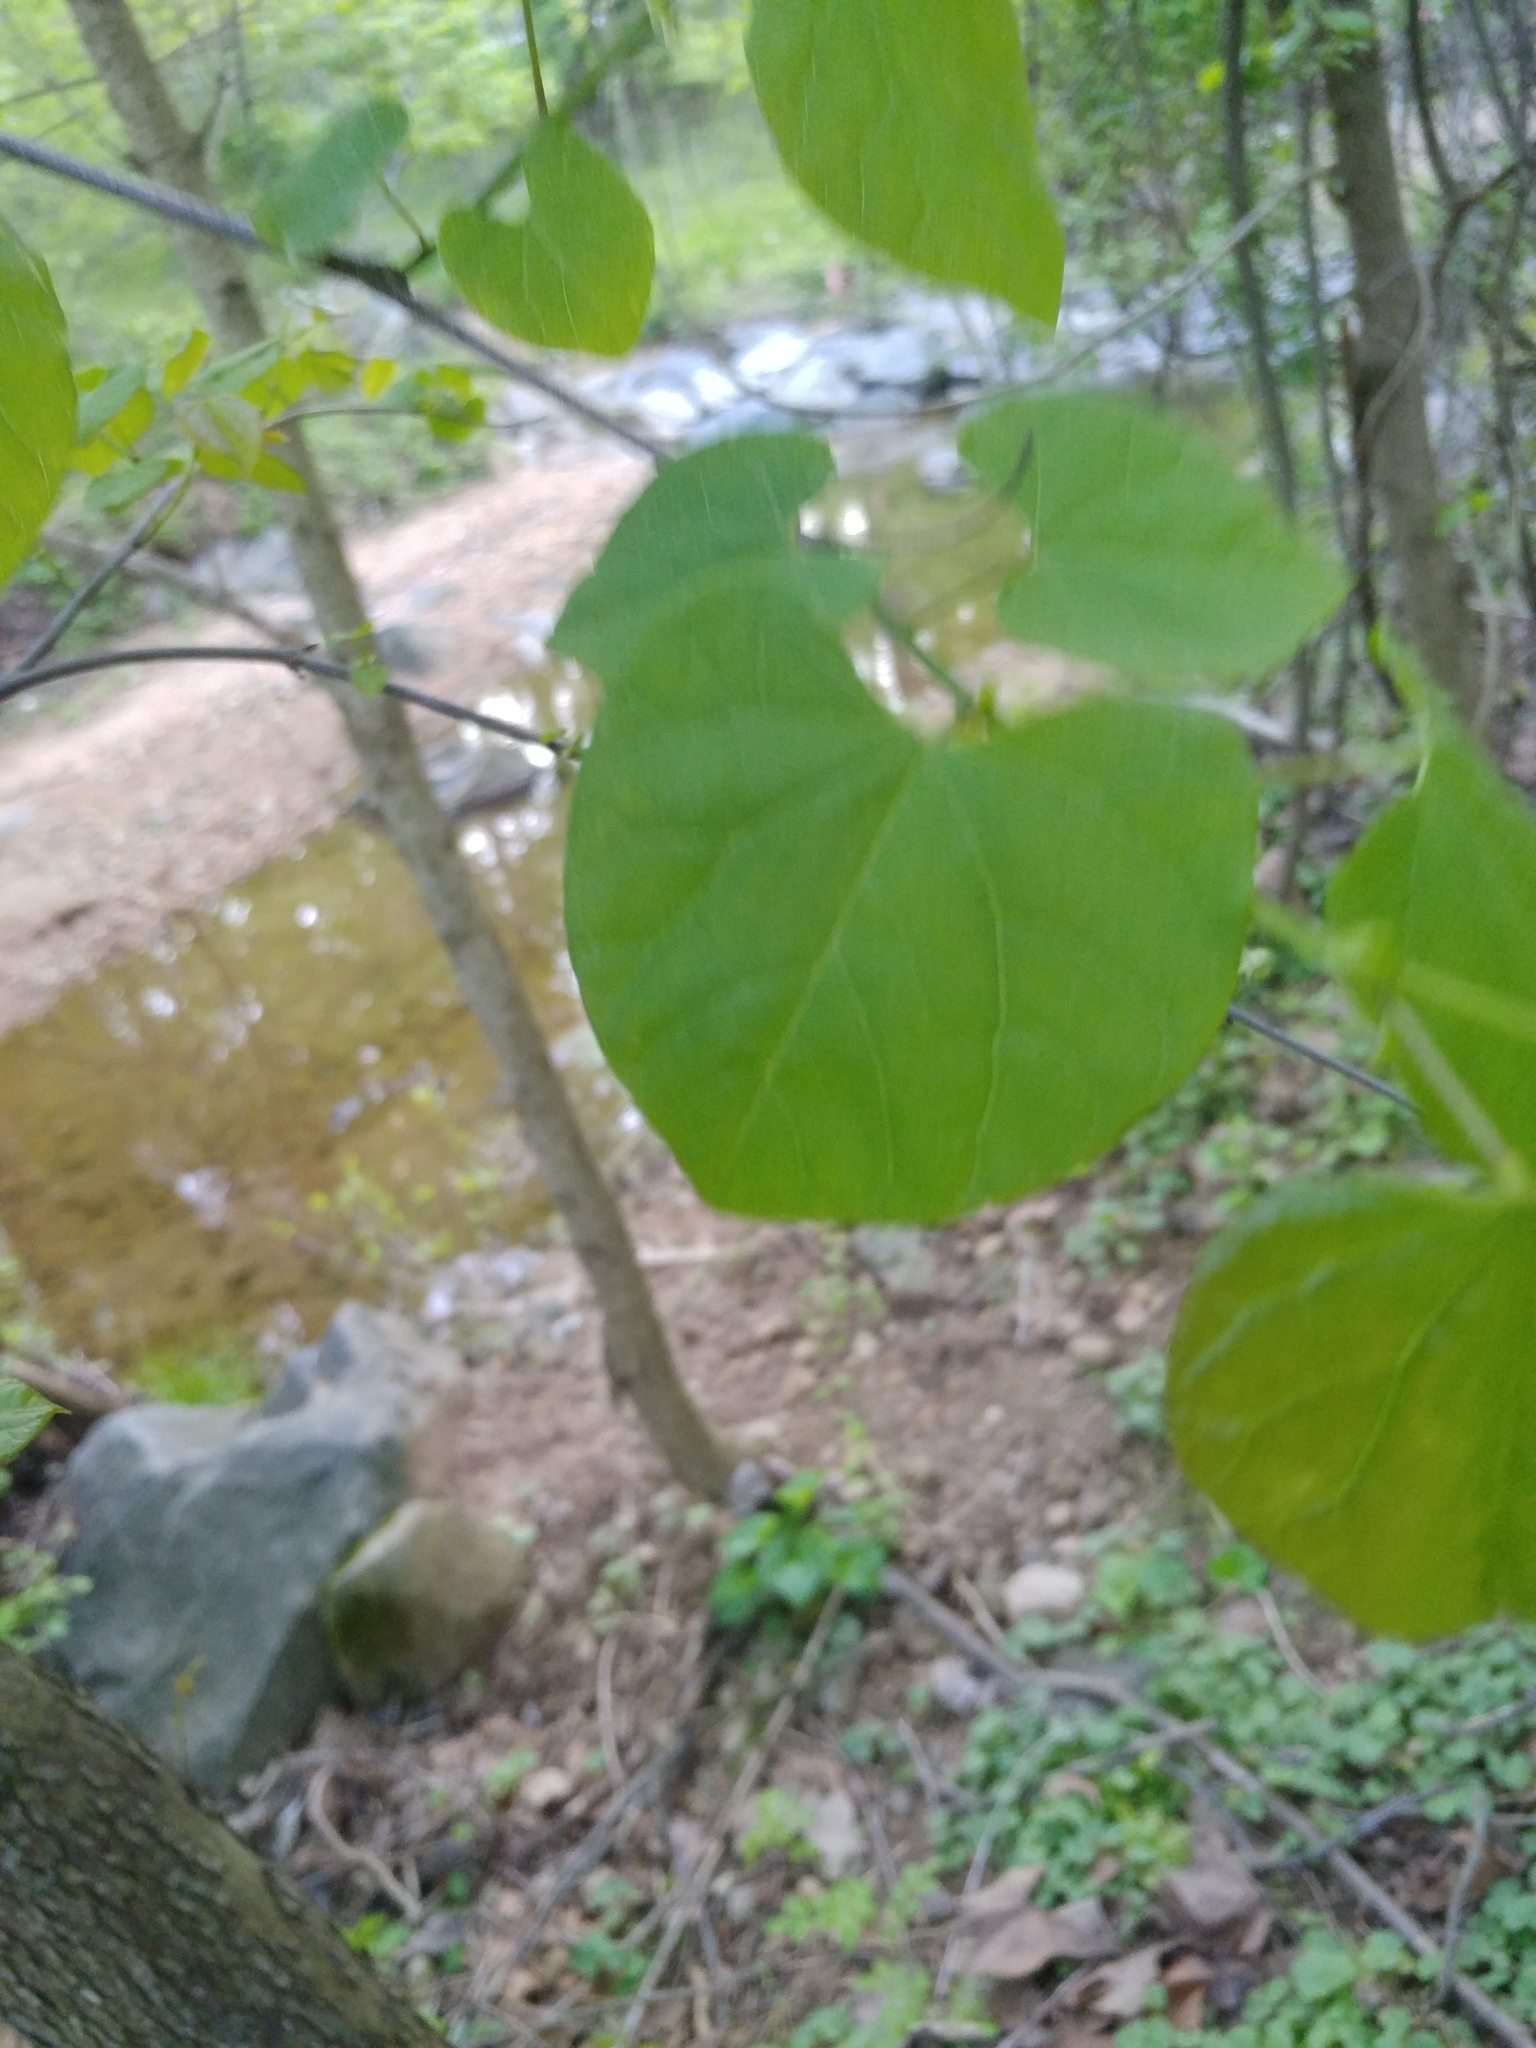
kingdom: Plantae
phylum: Tracheophyta
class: Magnoliopsida
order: Fabales
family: Fabaceae
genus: Cercis
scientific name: Cercis canadensis
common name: Eastern redbud
